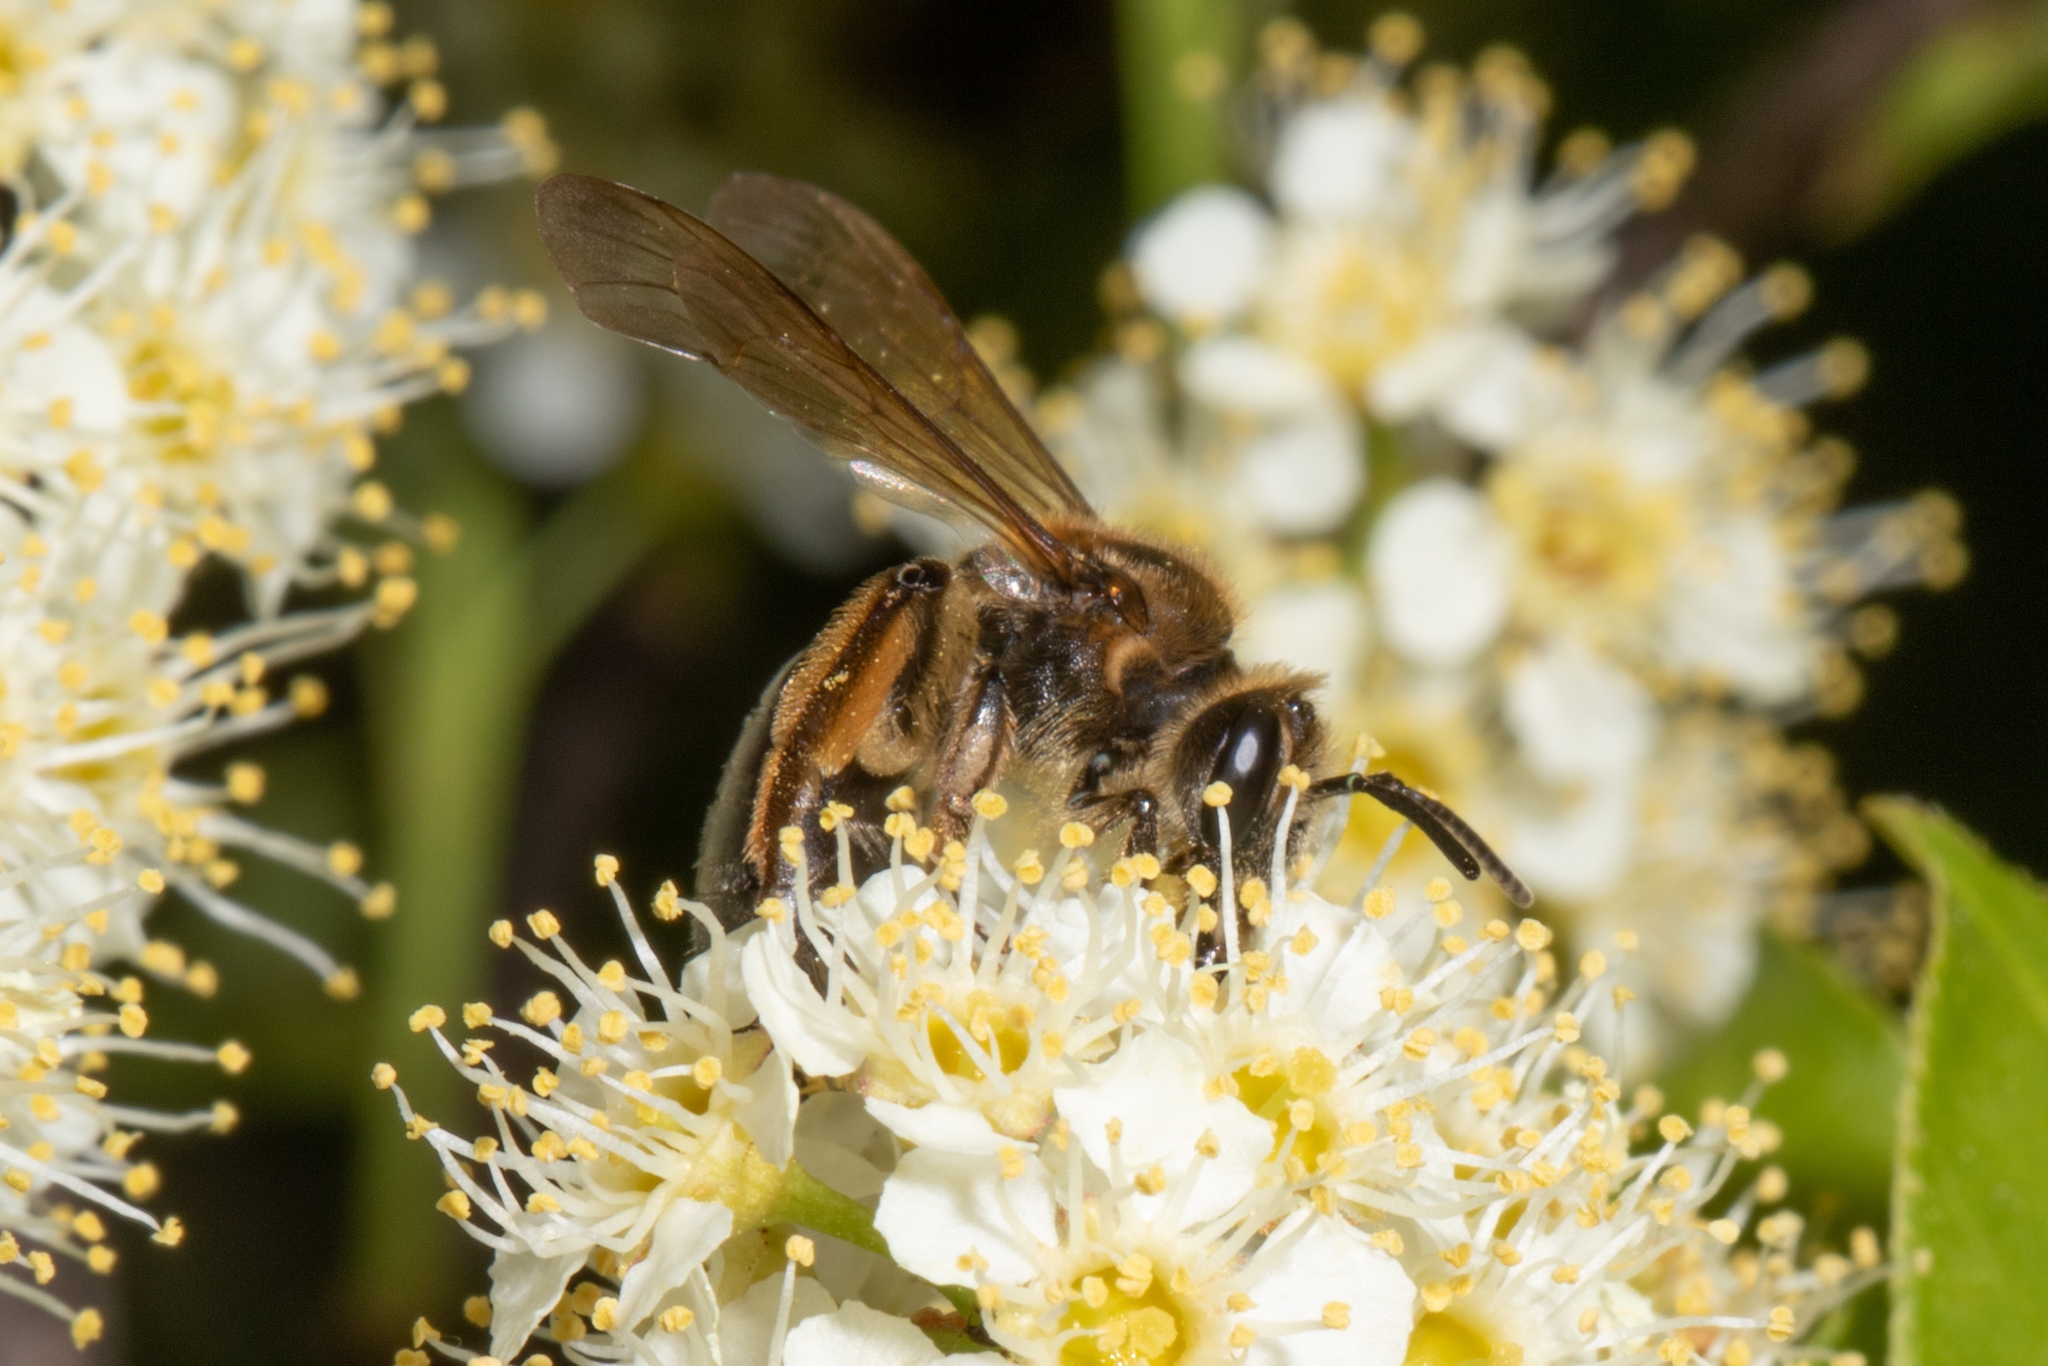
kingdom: Animalia
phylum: Arthropoda
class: Insecta
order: Hymenoptera
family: Andrenidae
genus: Andrena
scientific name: Andrena crataegi
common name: Hawthorn mining bee
